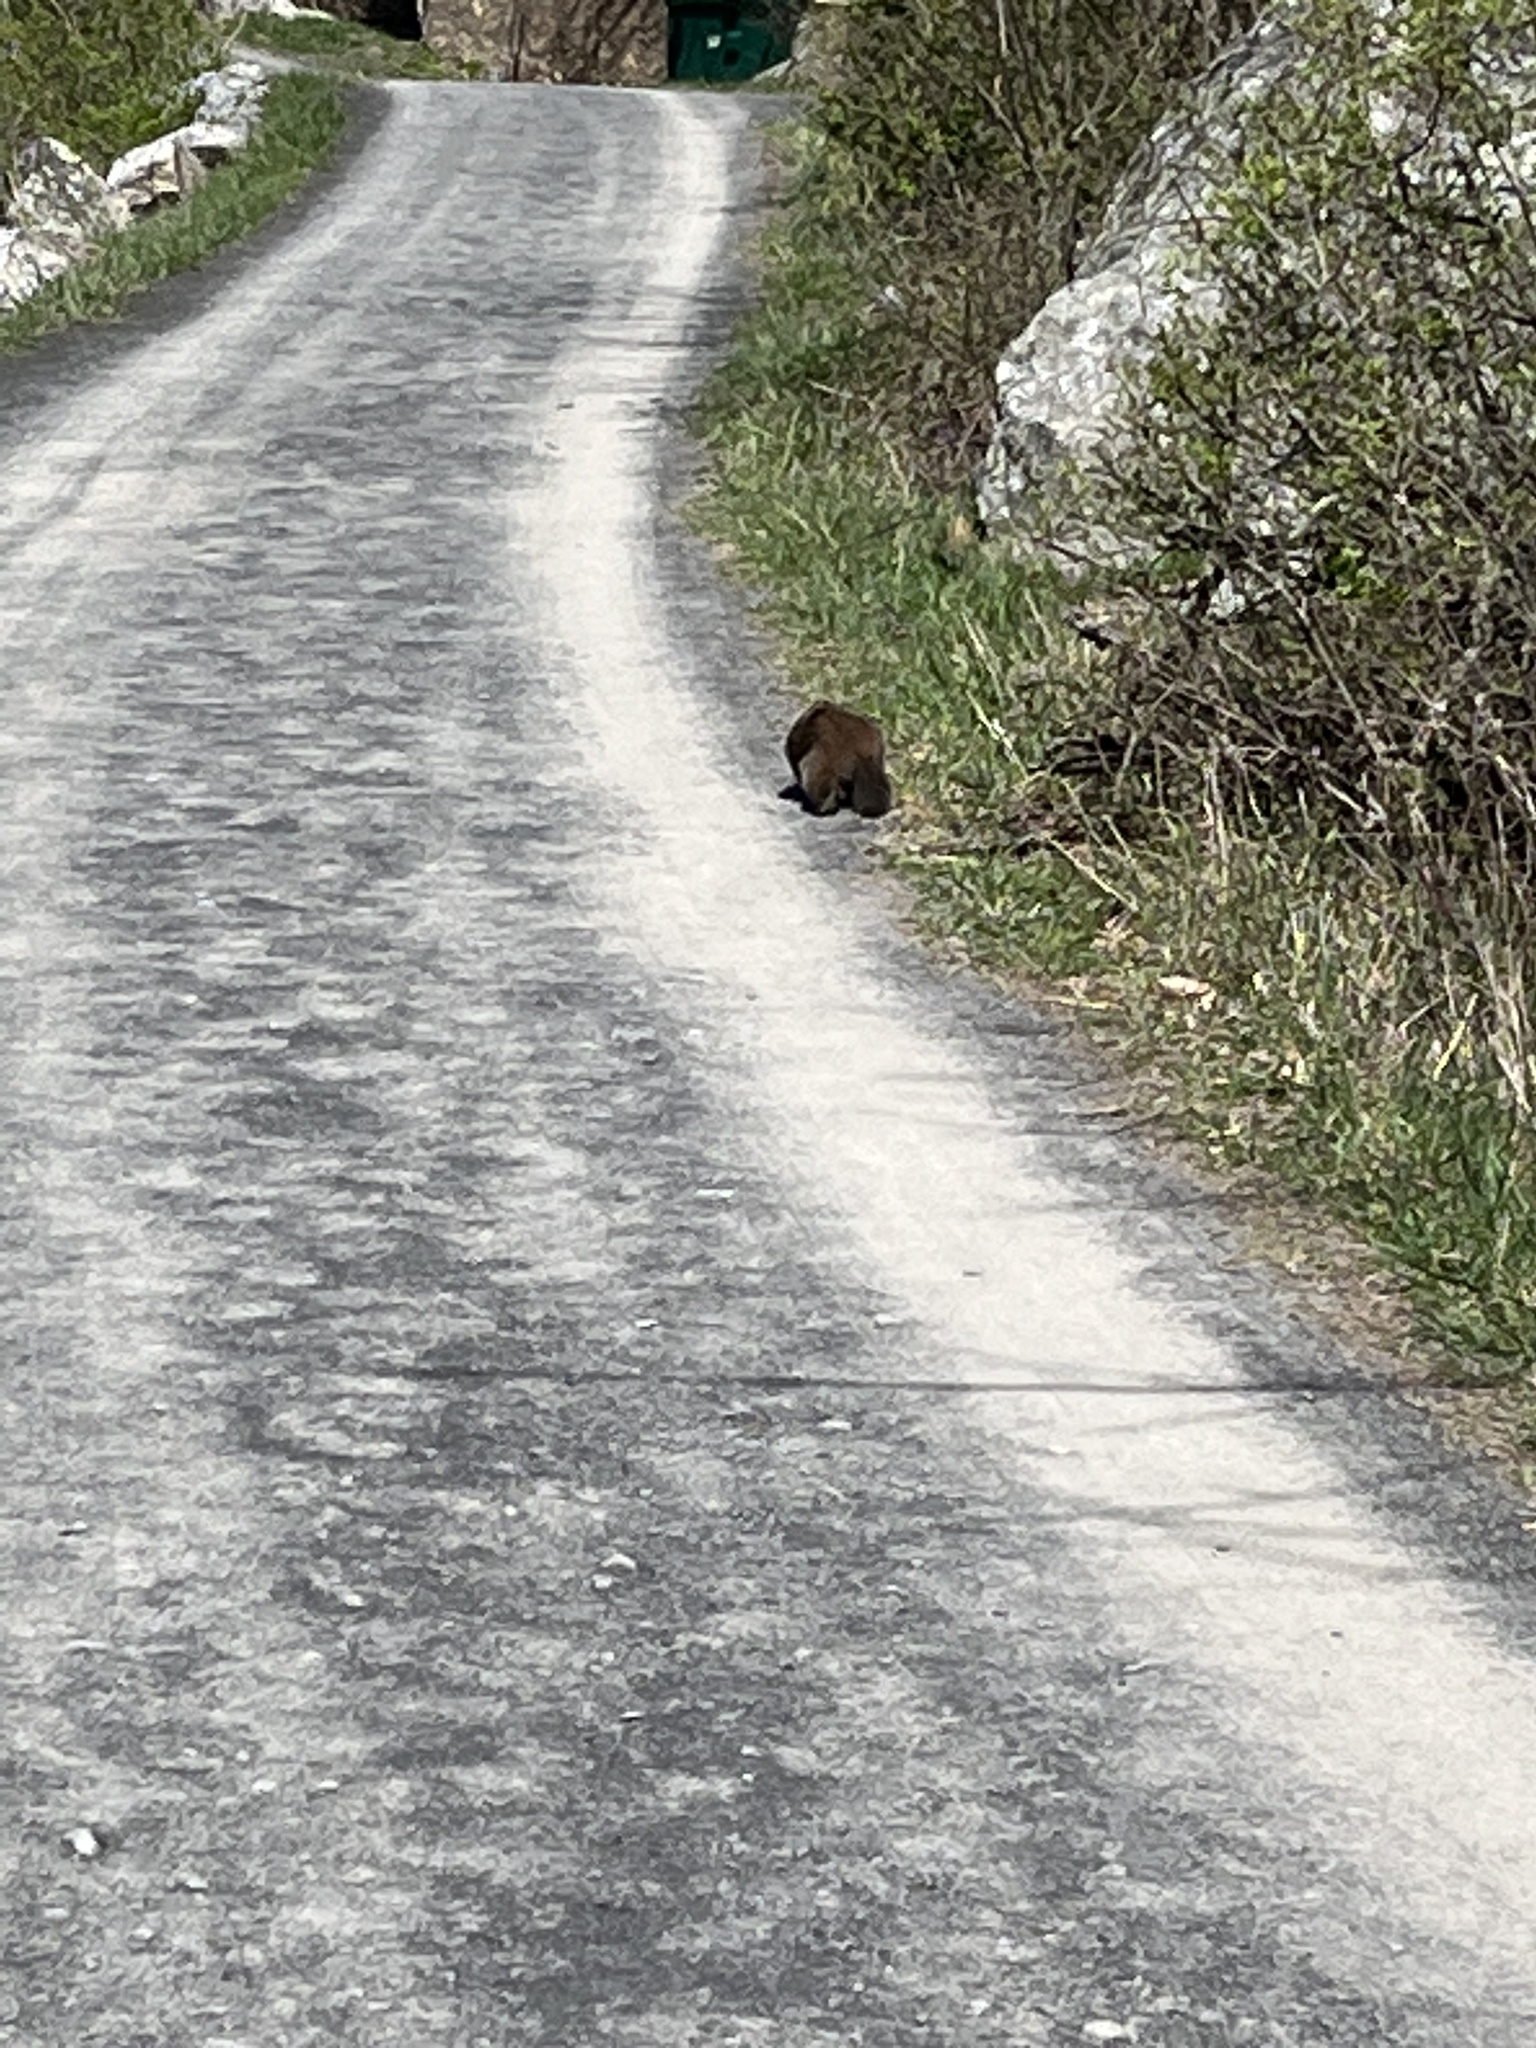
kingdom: Animalia
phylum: Chordata
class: Mammalia
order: Rodentia
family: Sciuridae
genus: Marmota
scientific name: Marmota monax
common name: Groundhog
